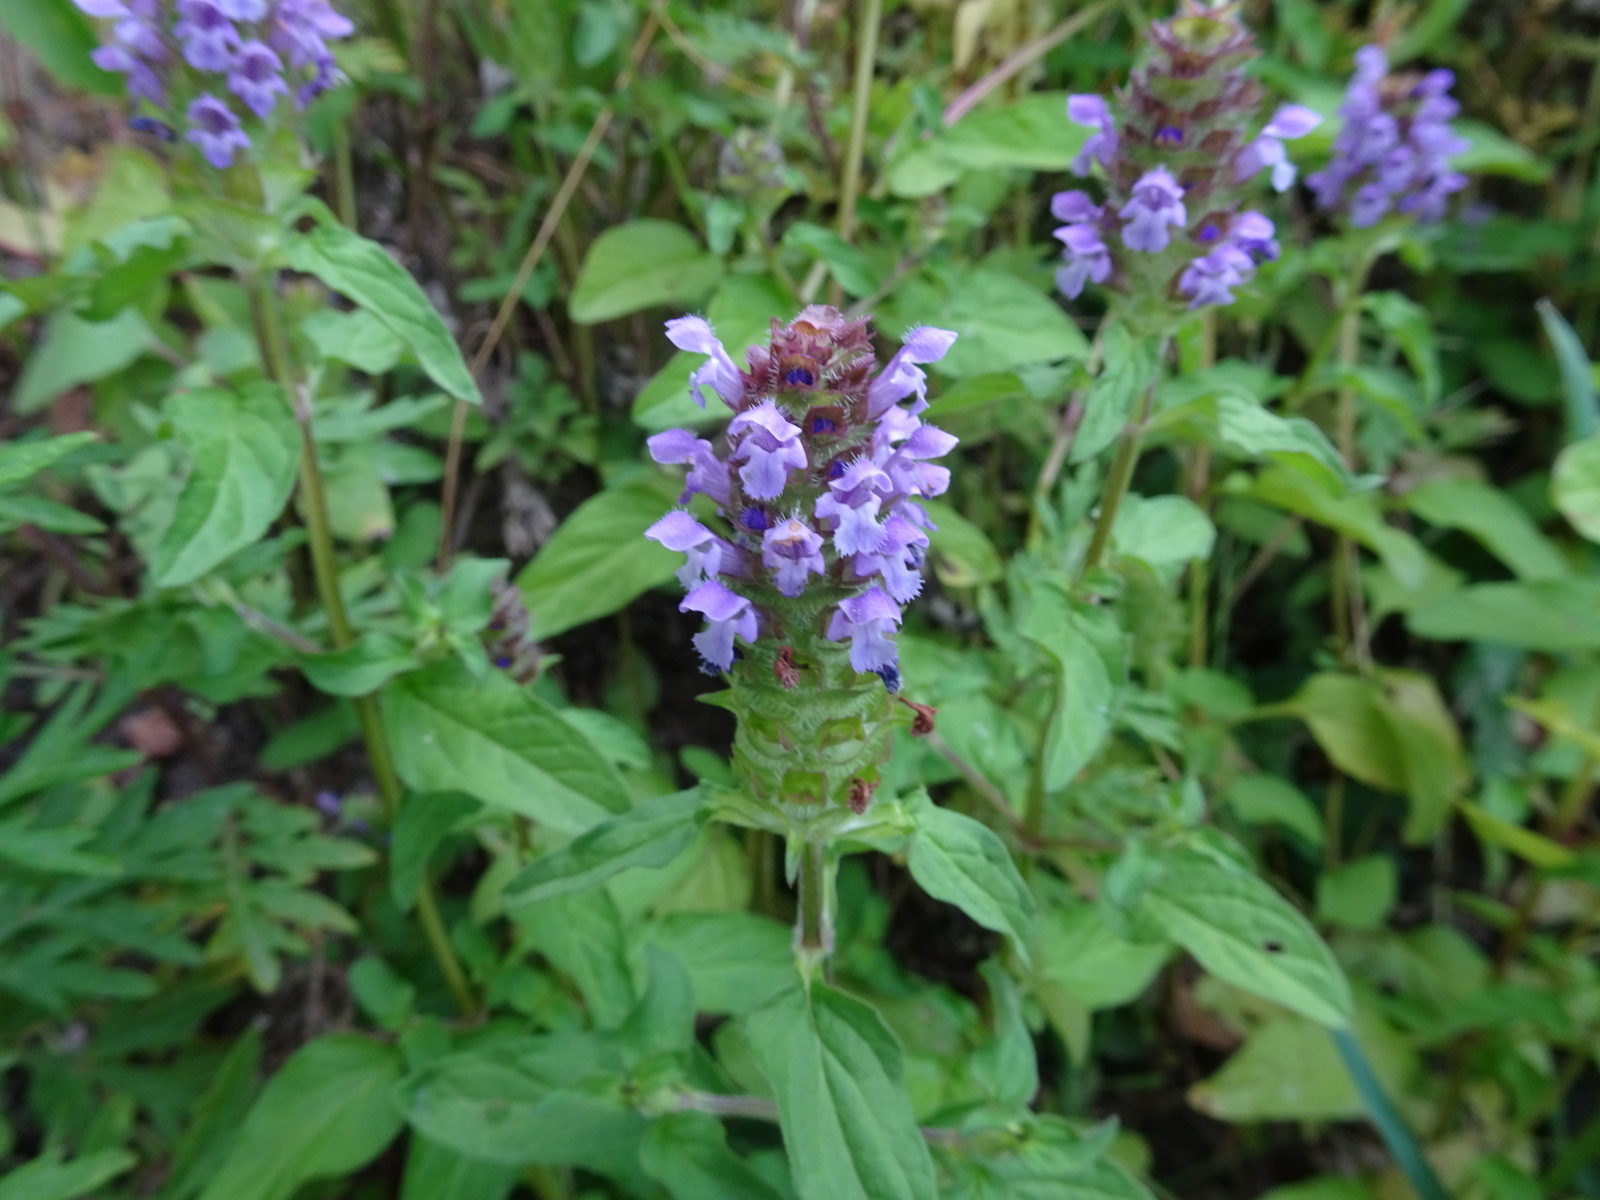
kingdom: Plantae
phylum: Tracheophyta
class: Magnoliopsida
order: Lamiales
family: Lamiaceae
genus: Prunella
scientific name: Prunella vulgaris
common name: Heal-all
